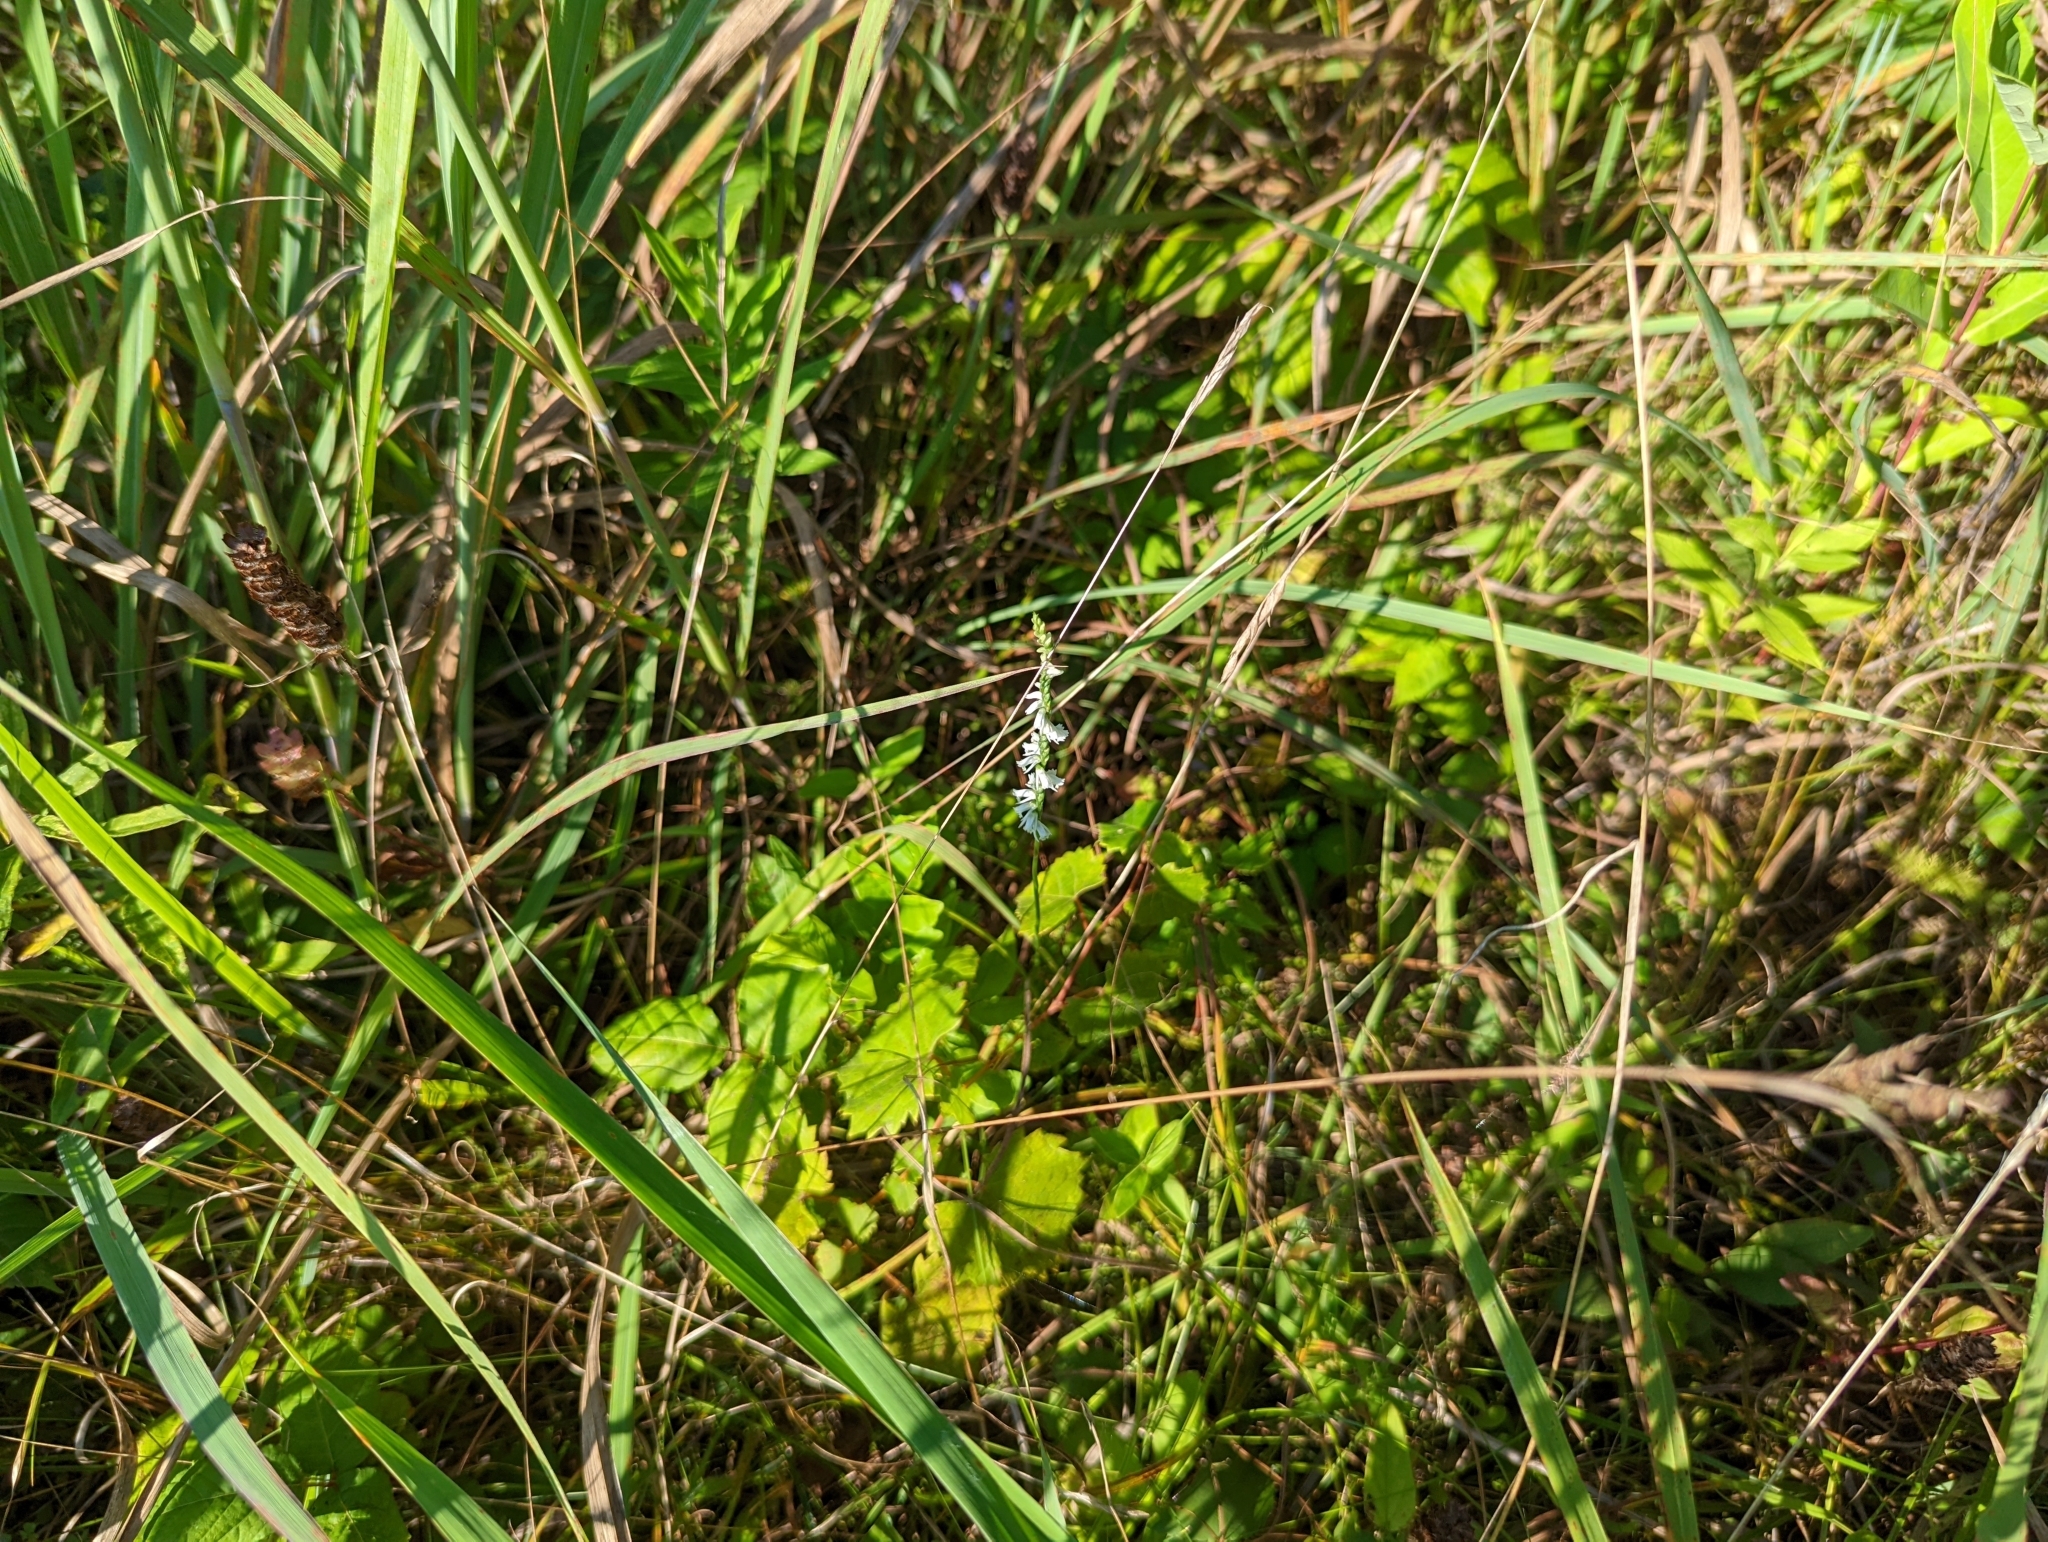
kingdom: Plantae
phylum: Tracheophyta
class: Liliopsida
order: Asparagales
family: Orchidaceae
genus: Spiranthes
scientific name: Spiranthes lacera
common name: Northern slender ladies'-tresses
